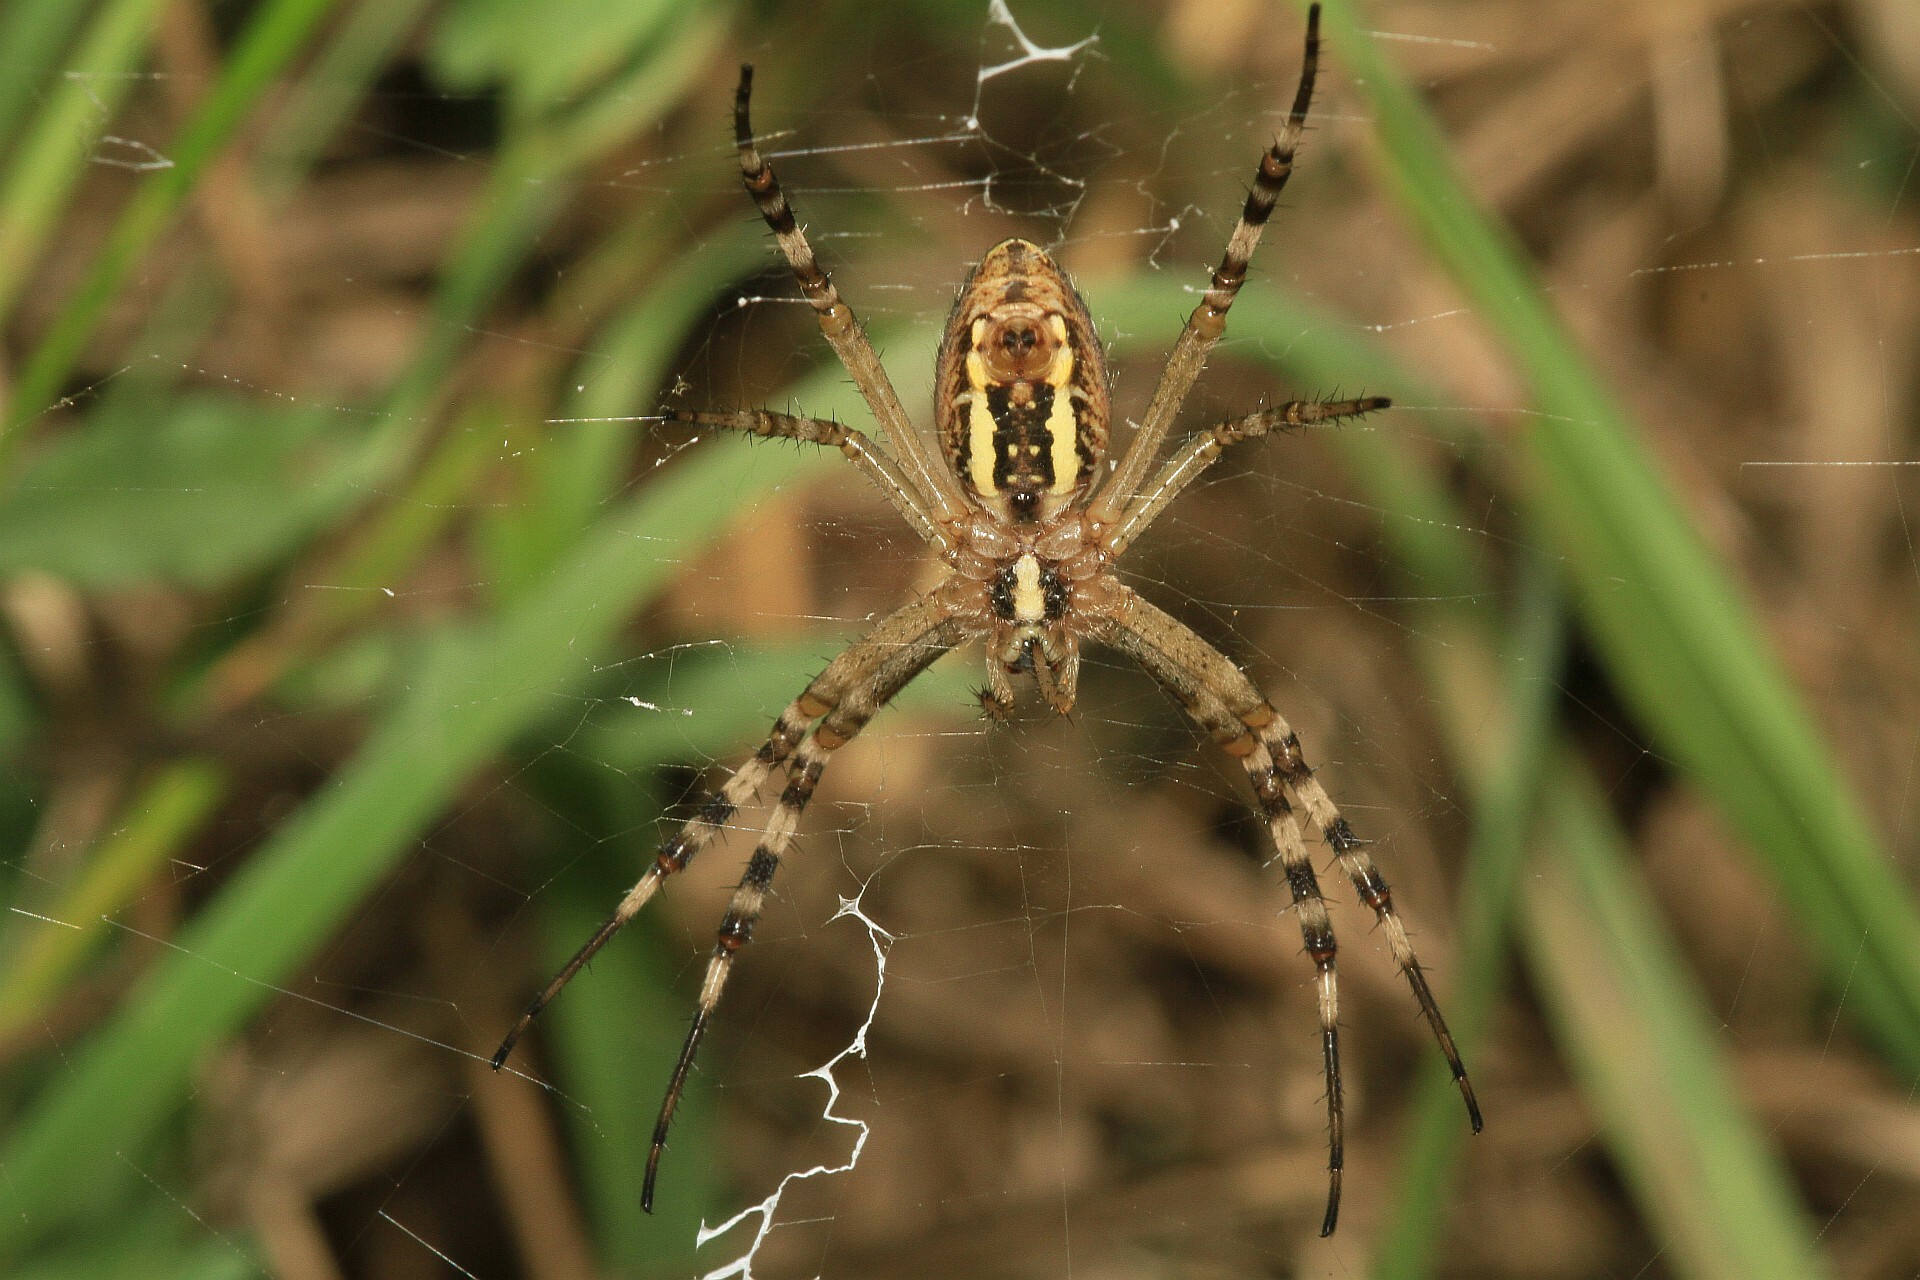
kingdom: Animalia
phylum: Arthropoda
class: Arachnida
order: Araneae
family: Araneidae
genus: Argiope
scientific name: Argiope bruennichi
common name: Wasp spider
